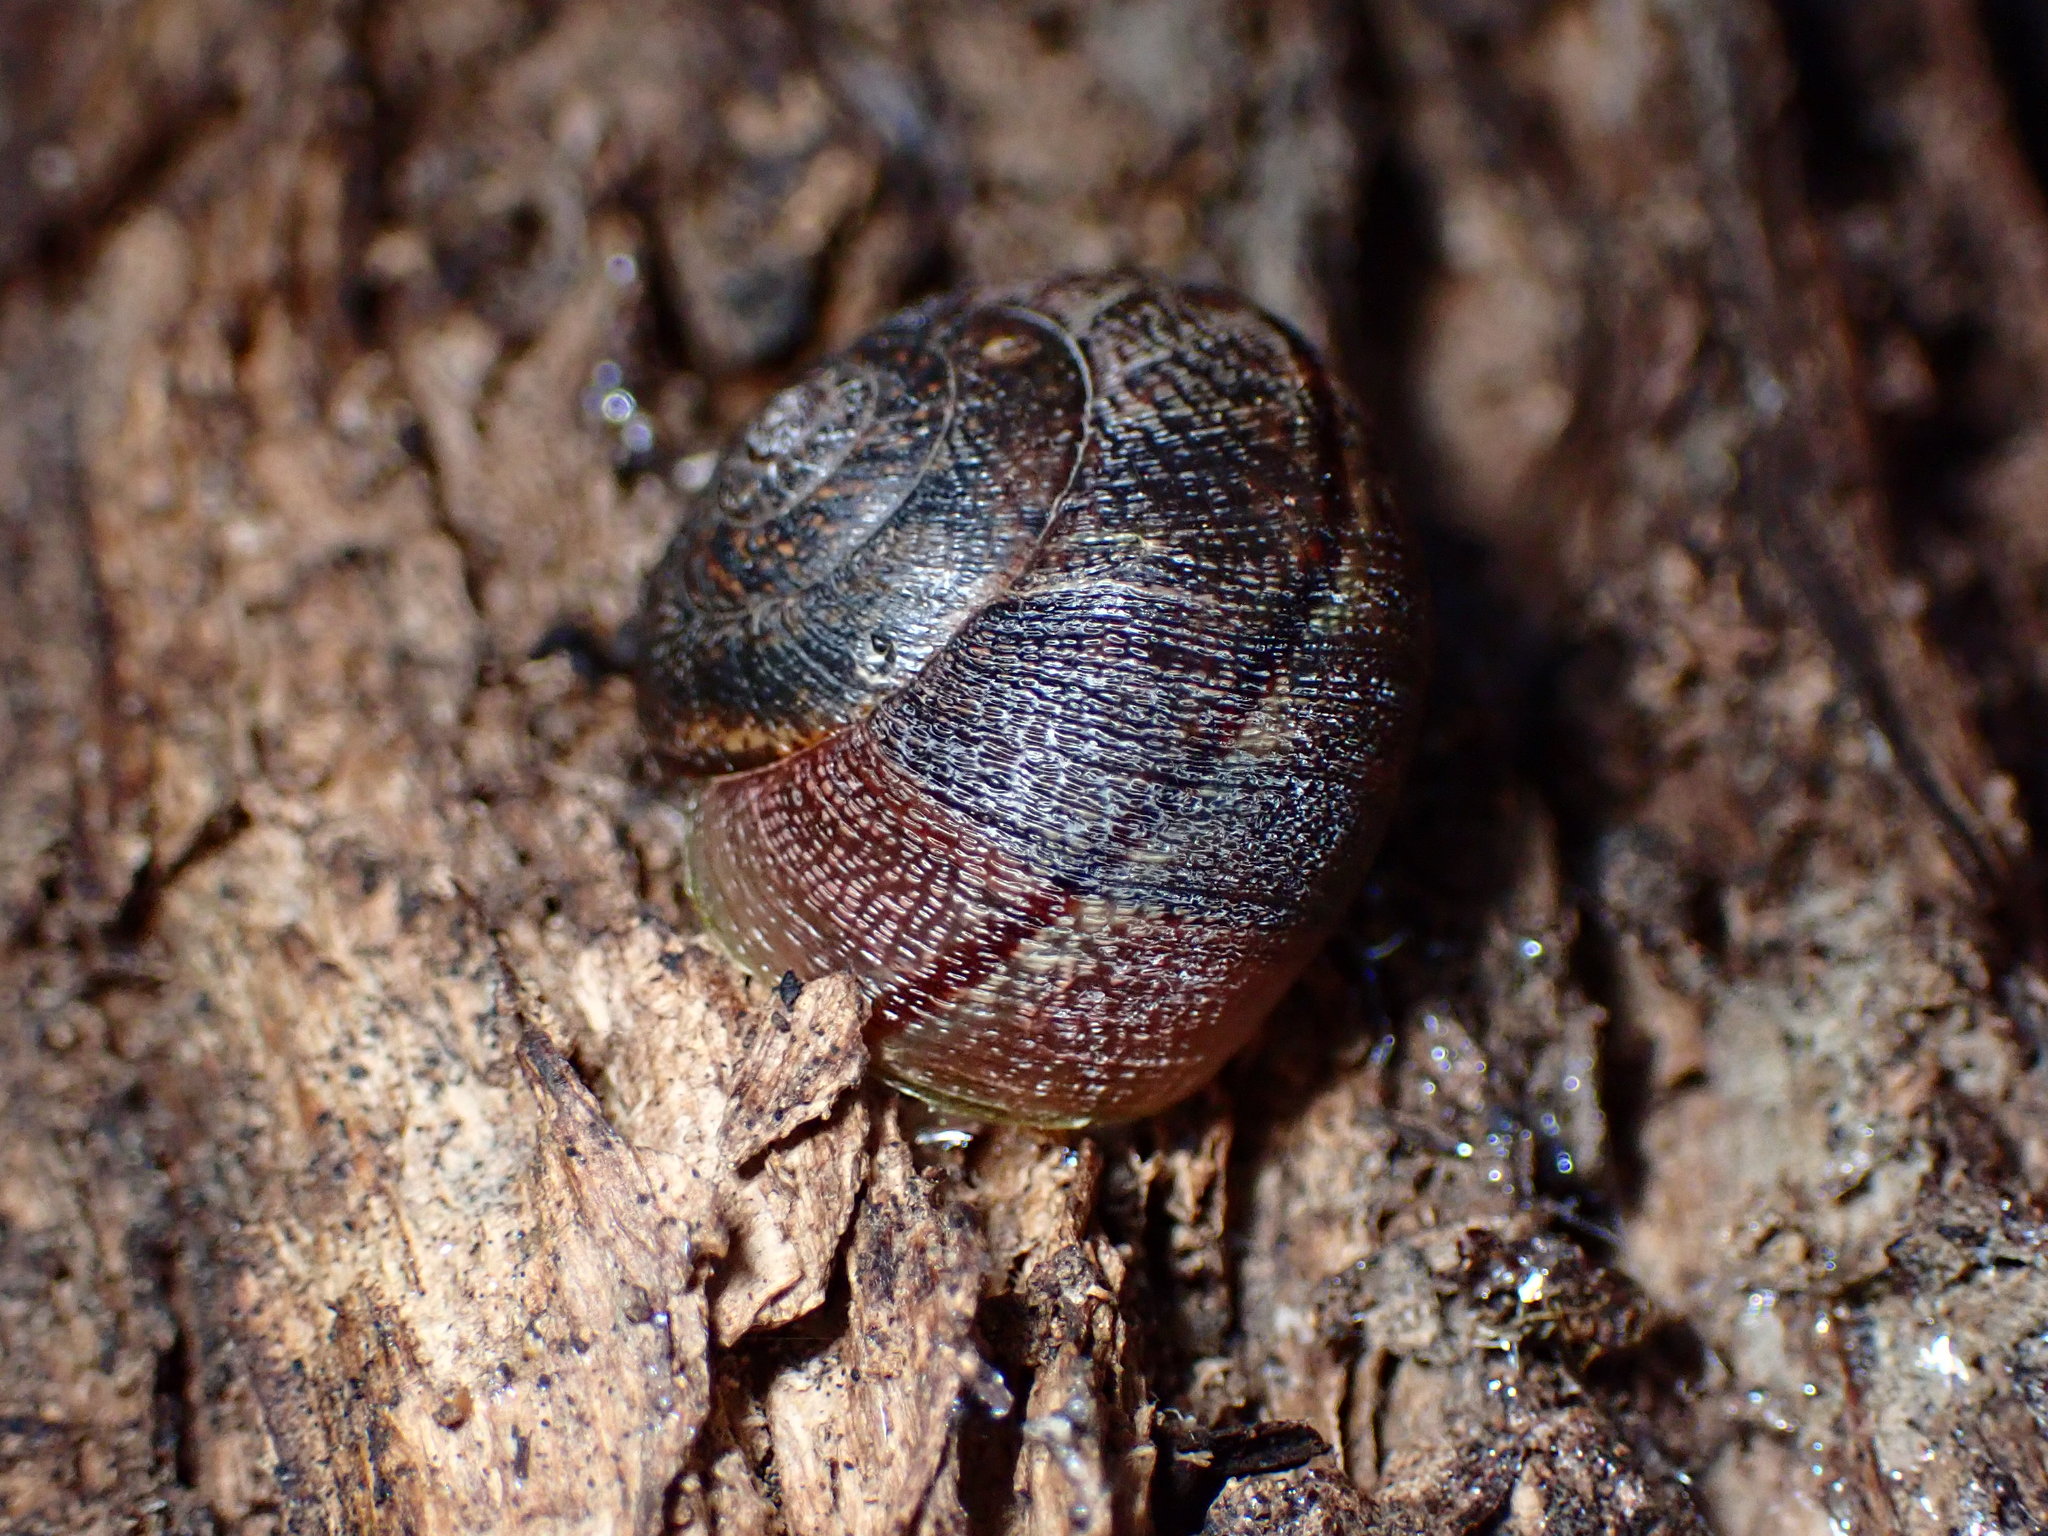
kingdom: Animalia
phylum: Mollusca
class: Gastropoda
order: Stylommatophora
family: Xanthonychidae
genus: Helminthoglypta
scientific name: Helminthoglypta nickliniana
